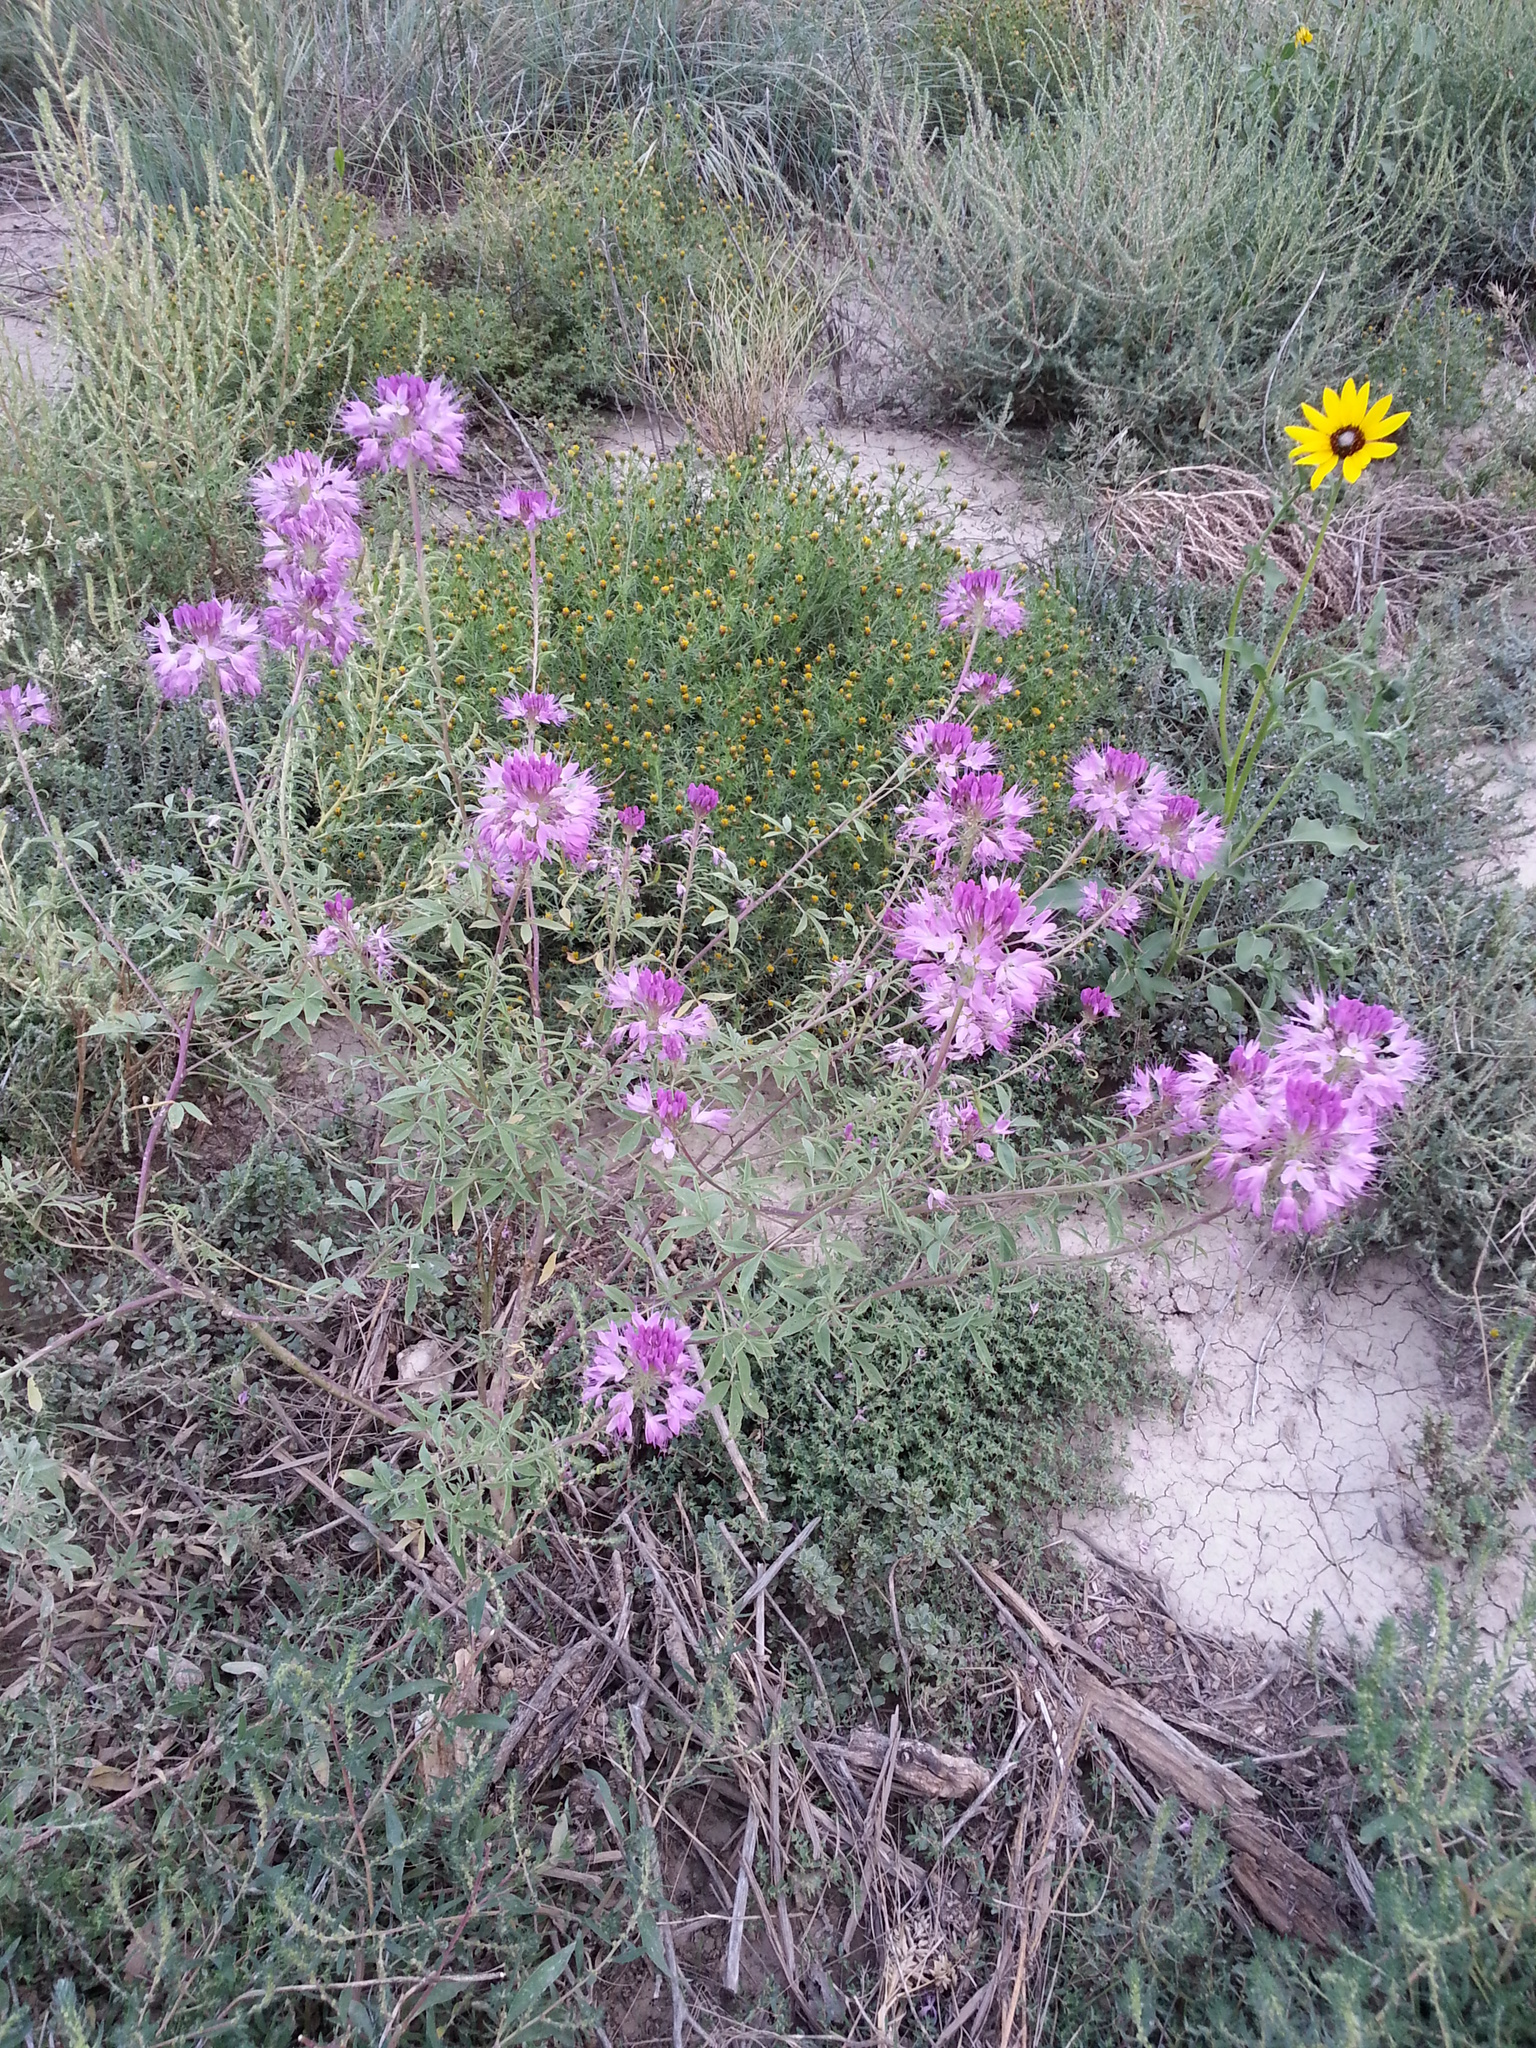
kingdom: Plantae
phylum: Tracheophyta
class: Magnoliopsida
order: Brassicales
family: Cleomaceae
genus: Cleomella
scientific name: Cleomella serrulata
